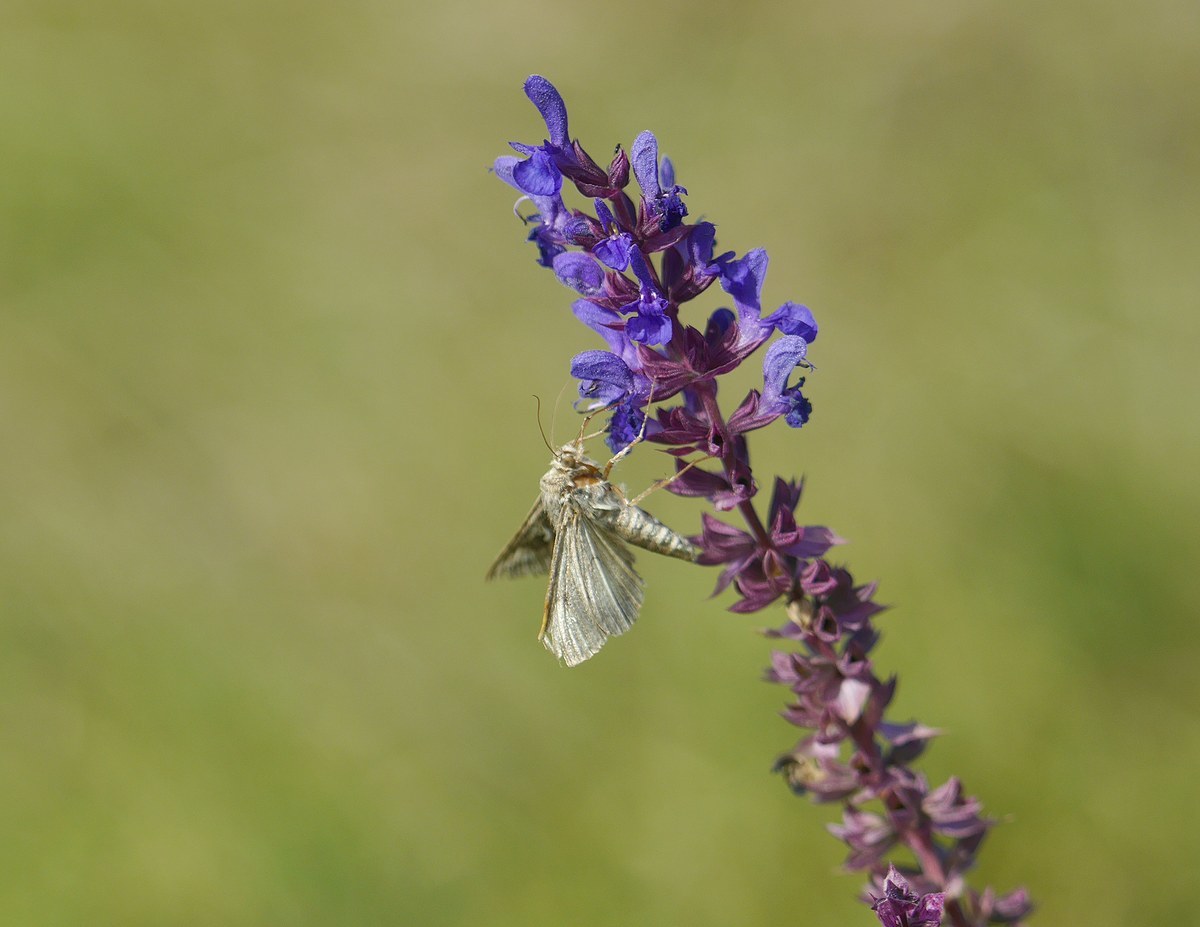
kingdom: Animalia
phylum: Arthropoda
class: Insecta
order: Lepidoptera
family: Noctuidae
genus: Autographa
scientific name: Autographa gamma
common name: Silver y
